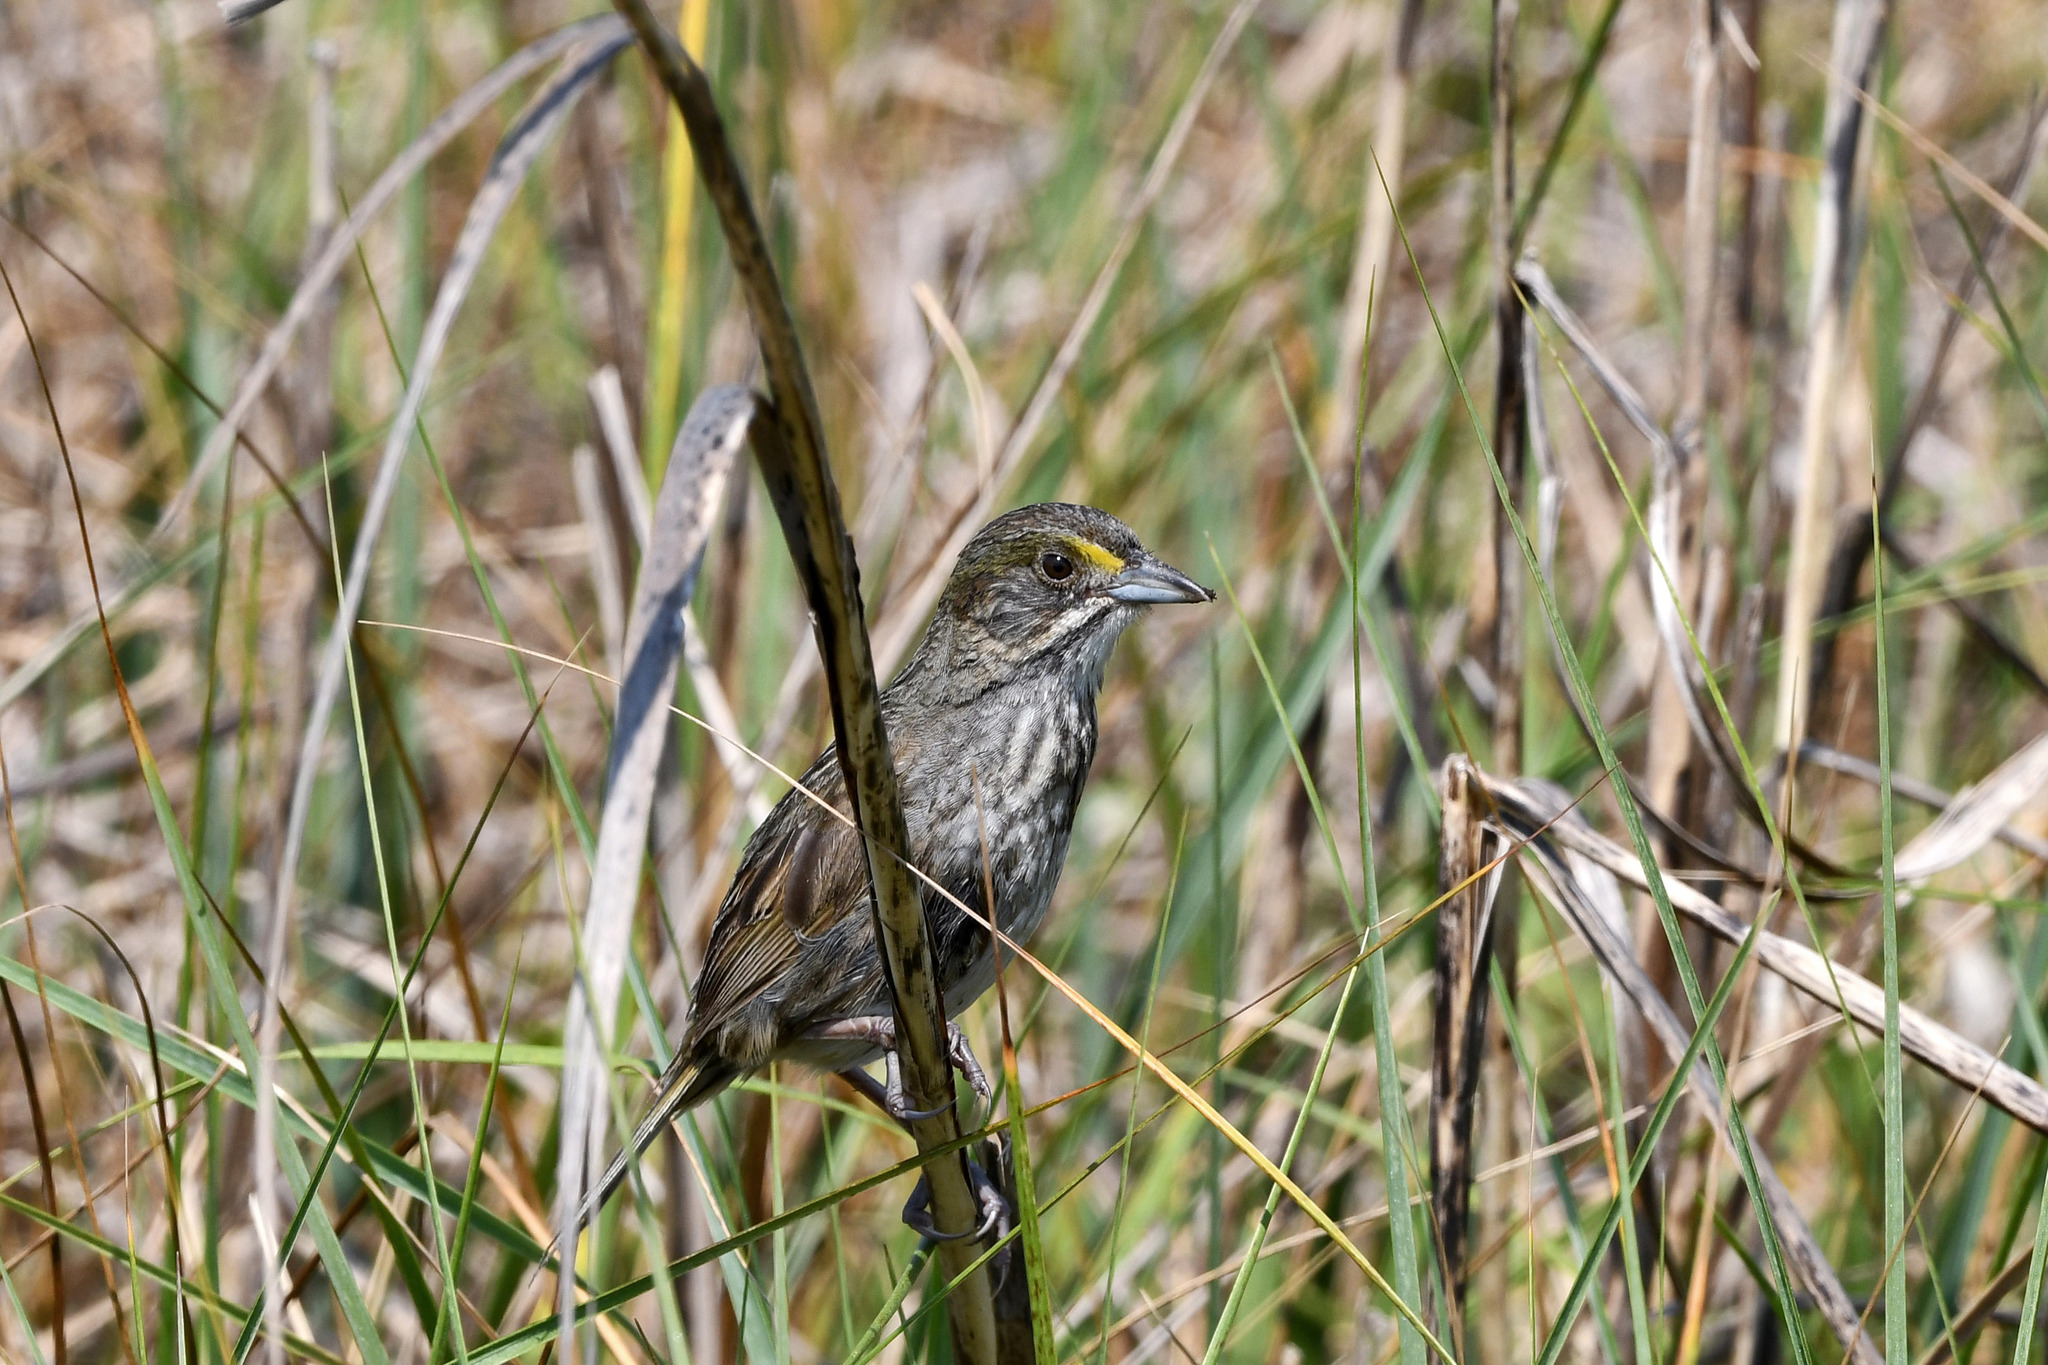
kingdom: Animalia
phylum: Chordata
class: Aves
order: Passeriformes
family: Passerellidae
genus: Ammospiza
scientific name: Ammospiza maritima
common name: Seaside sparrow
